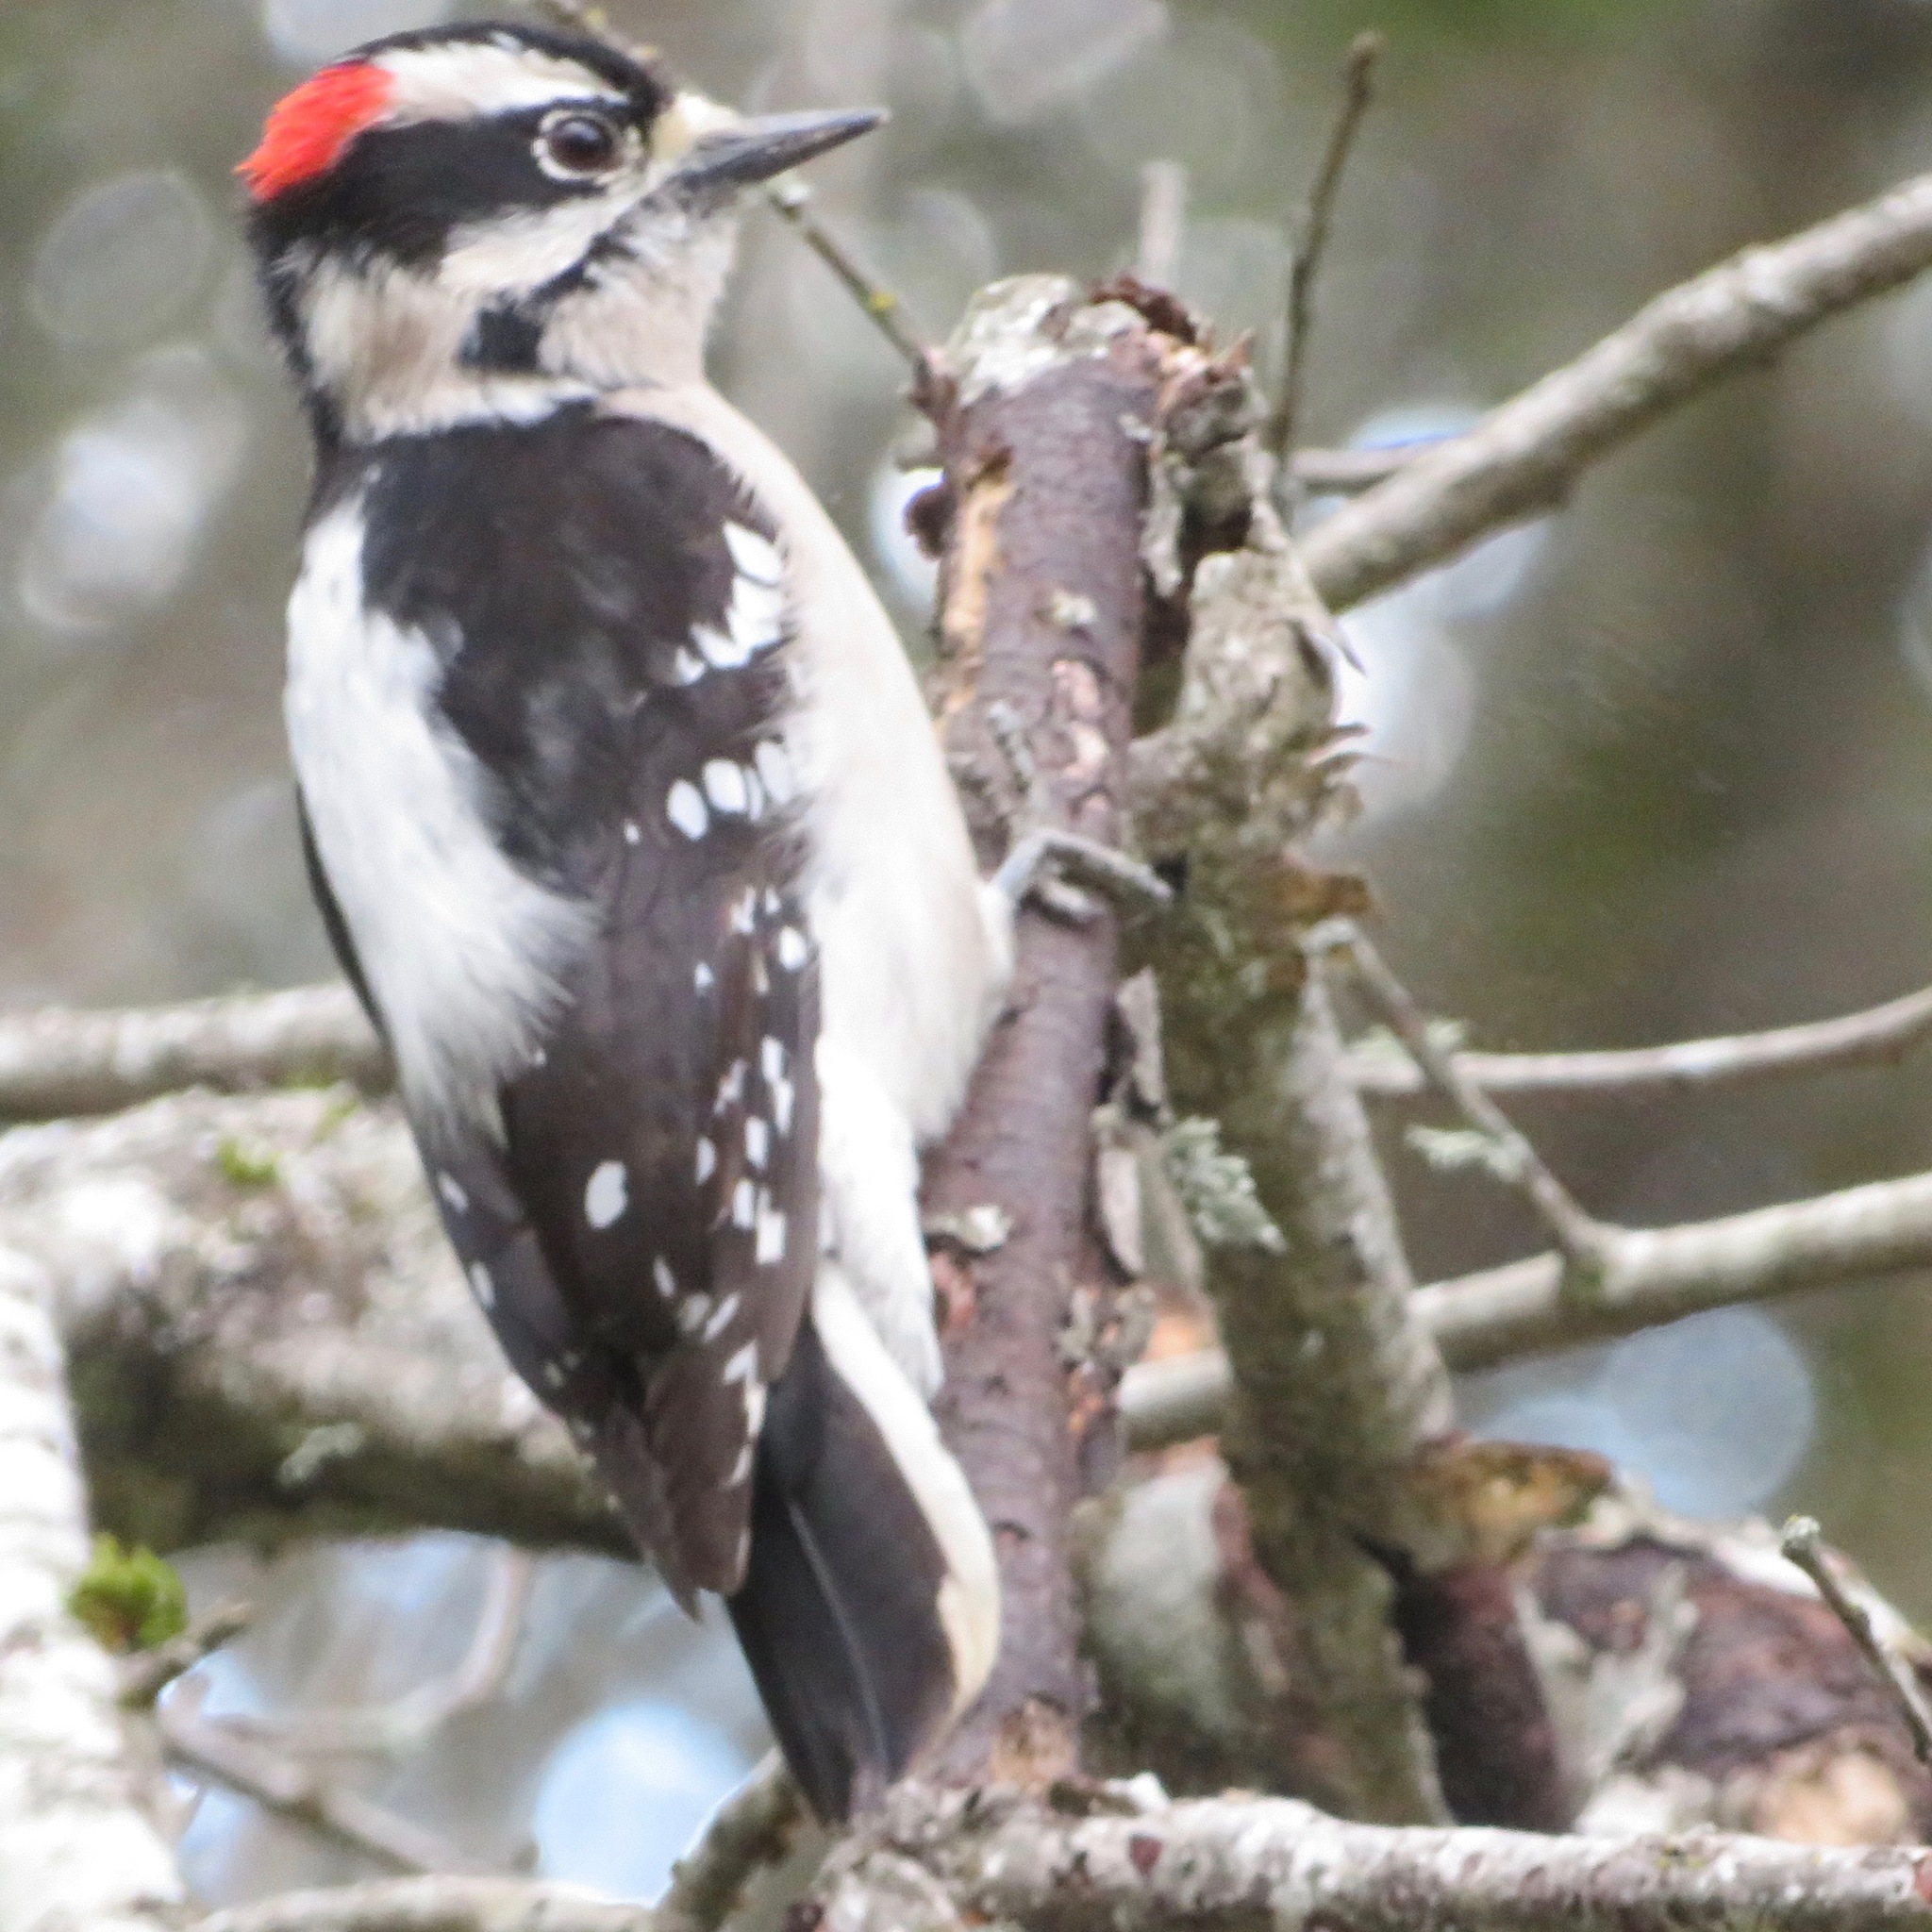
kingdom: Animalia
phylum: Chordata
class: Aves
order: Piciformes
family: Picidae
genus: Dryobates
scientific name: Dryobates pubescens
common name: Downy woodpecker
